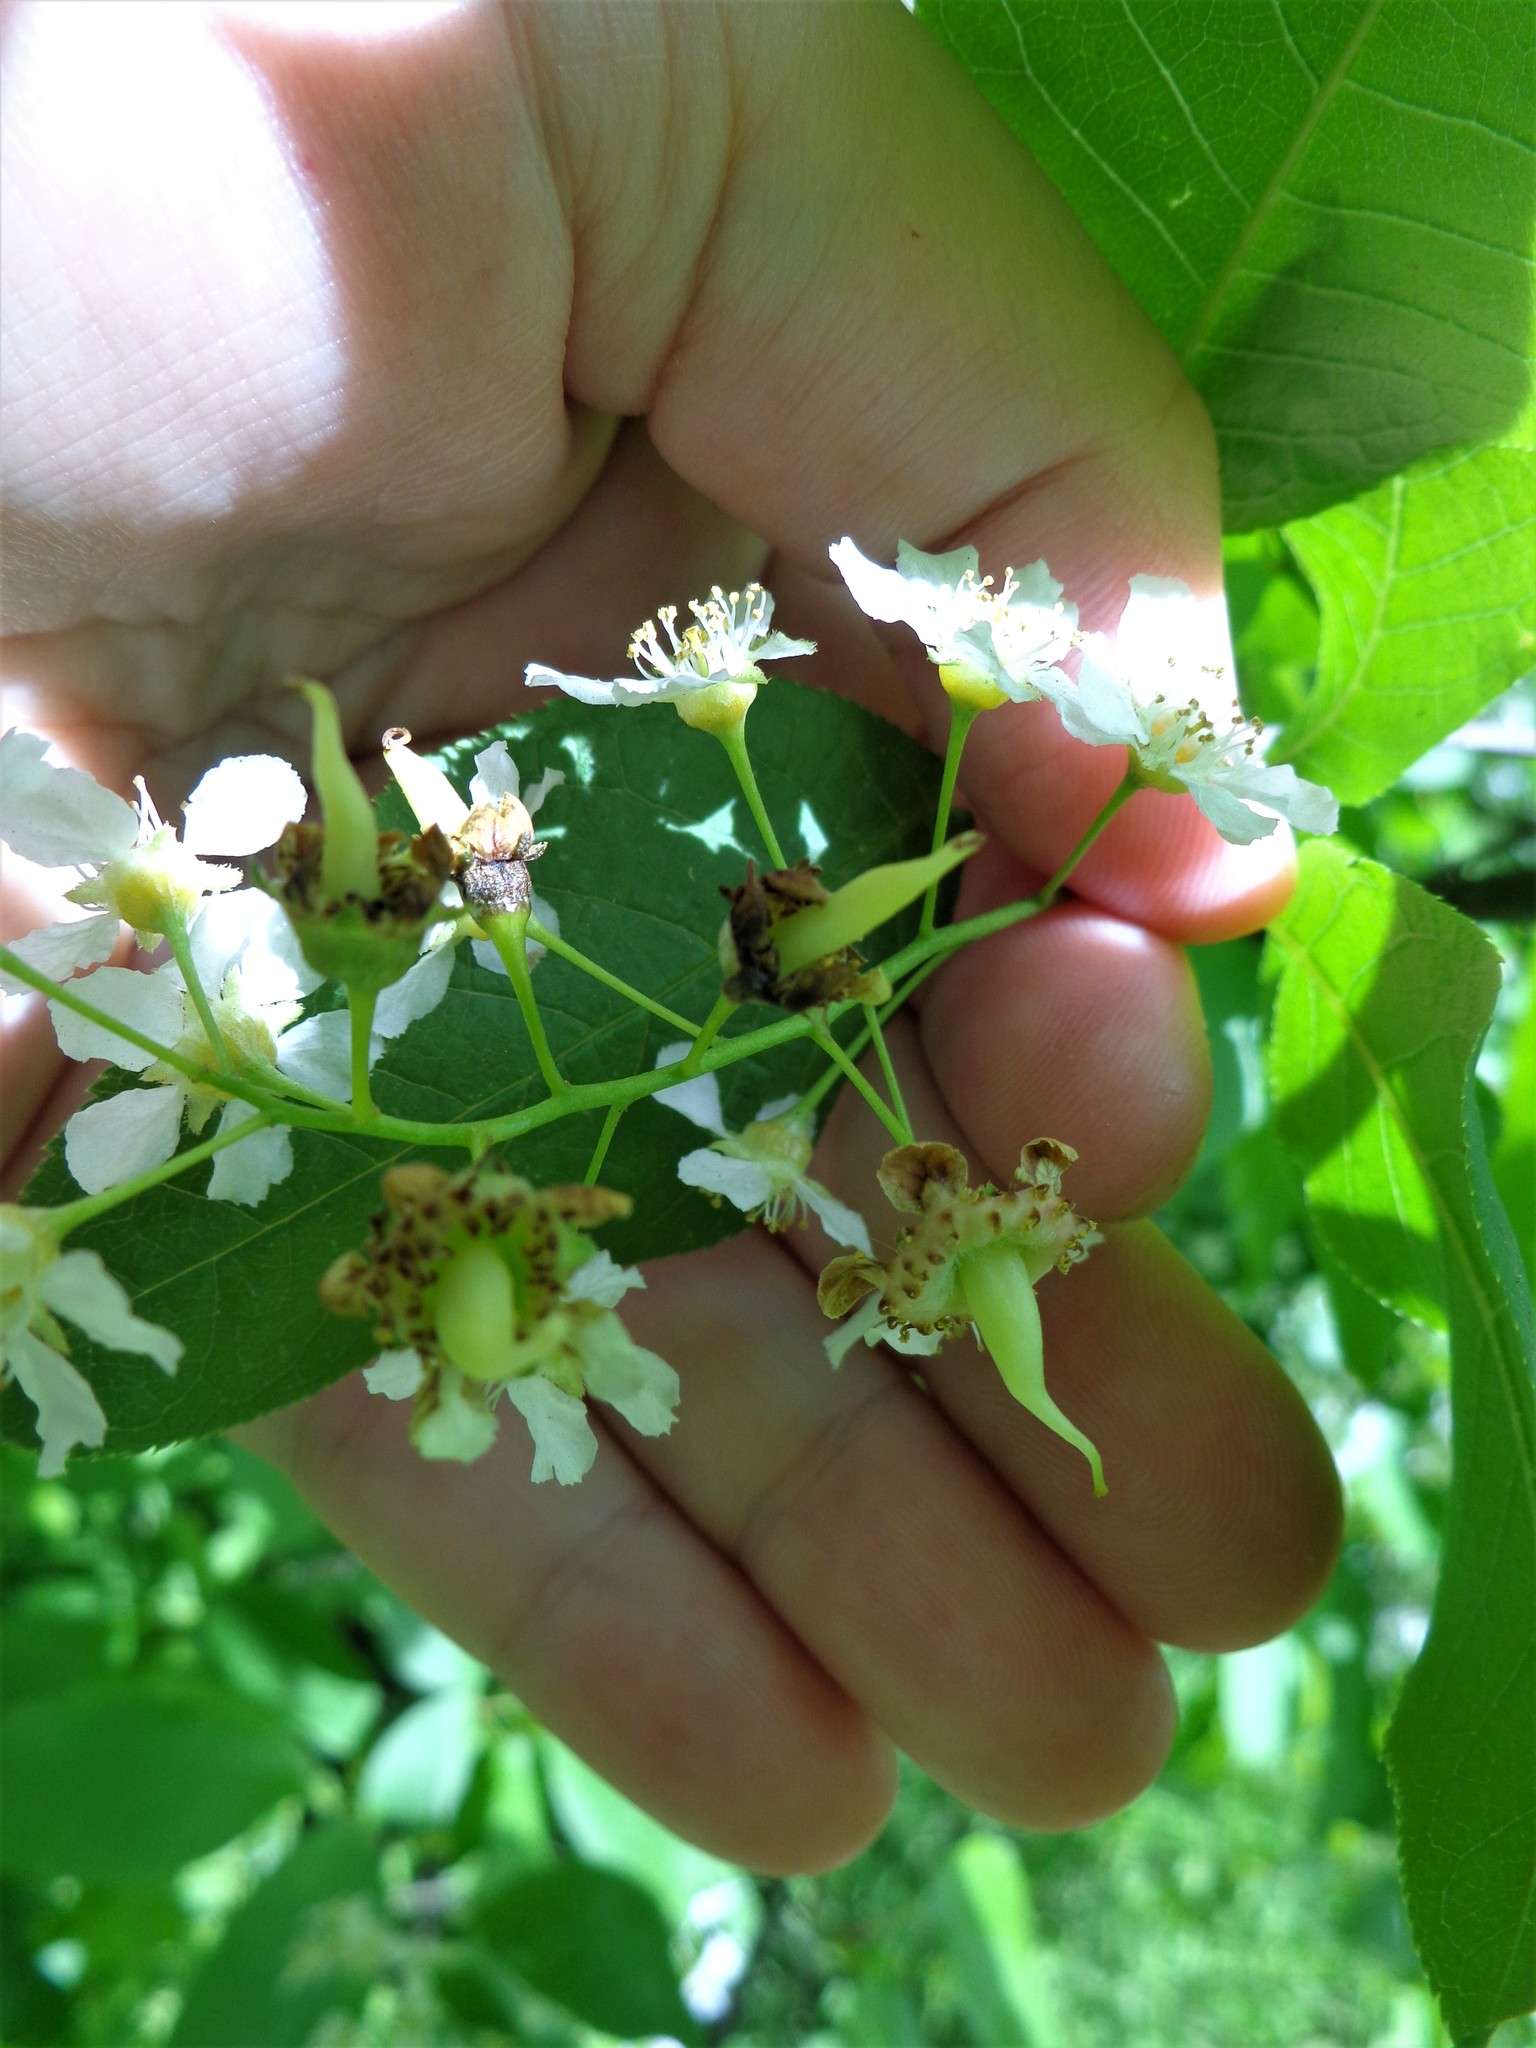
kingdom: Fungi
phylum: Ascomycota
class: Taphrinomycetes
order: Taphrinales
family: Taphrinaceae
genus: Taphrina
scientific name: Taphrina padi
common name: Bird cherry pocket
